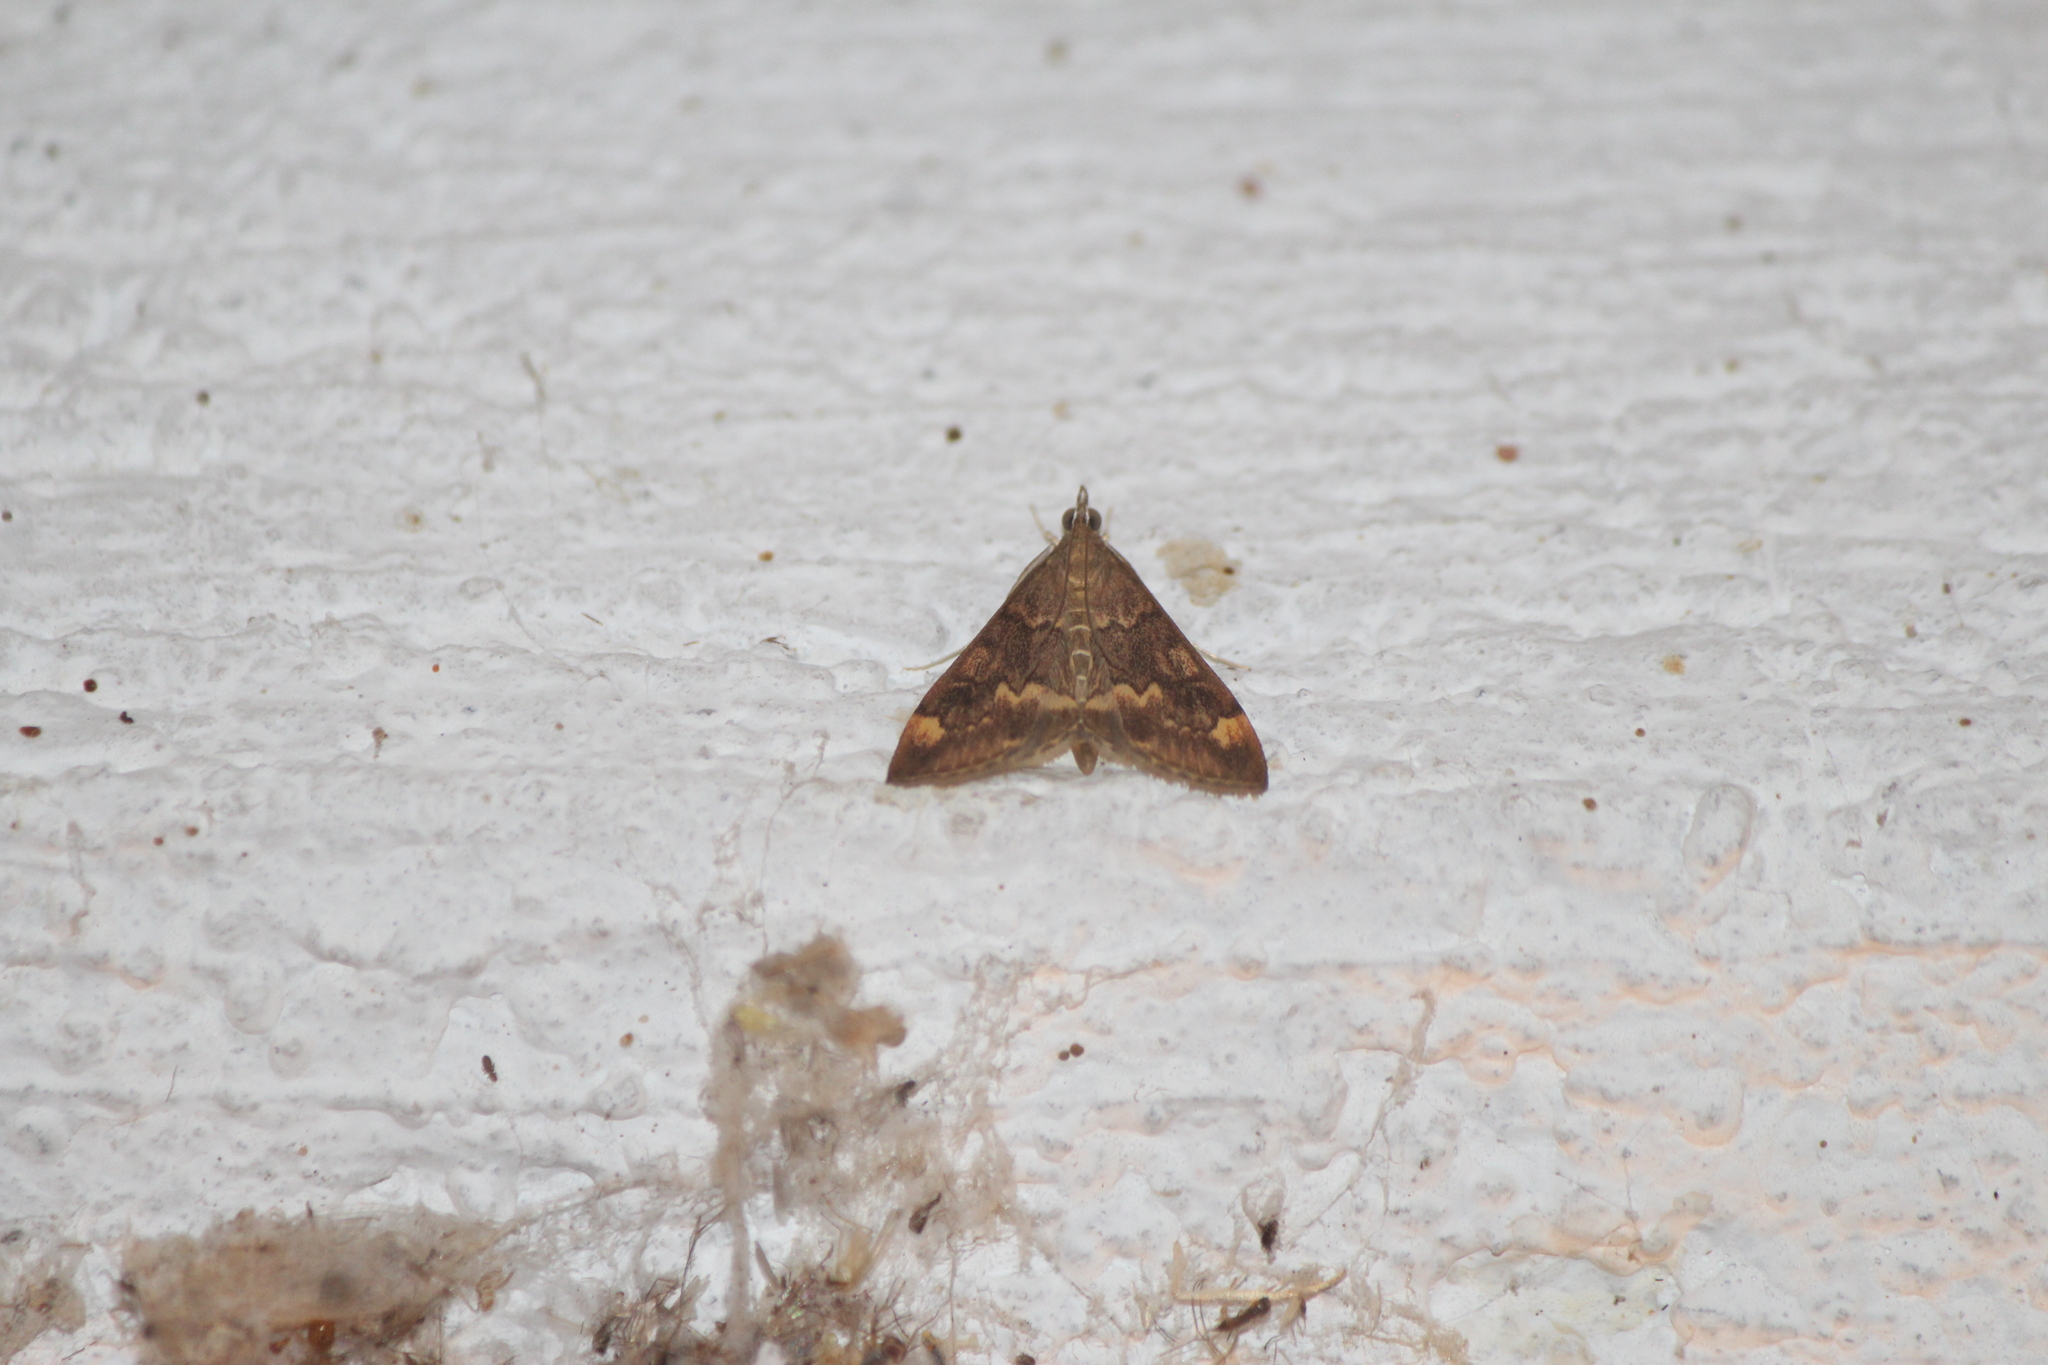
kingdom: Animalia
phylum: Arthropoda
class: Insecta
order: Lepidoptera
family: Crambidae
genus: Pyrausta
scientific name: Pyrausta onythesalis
